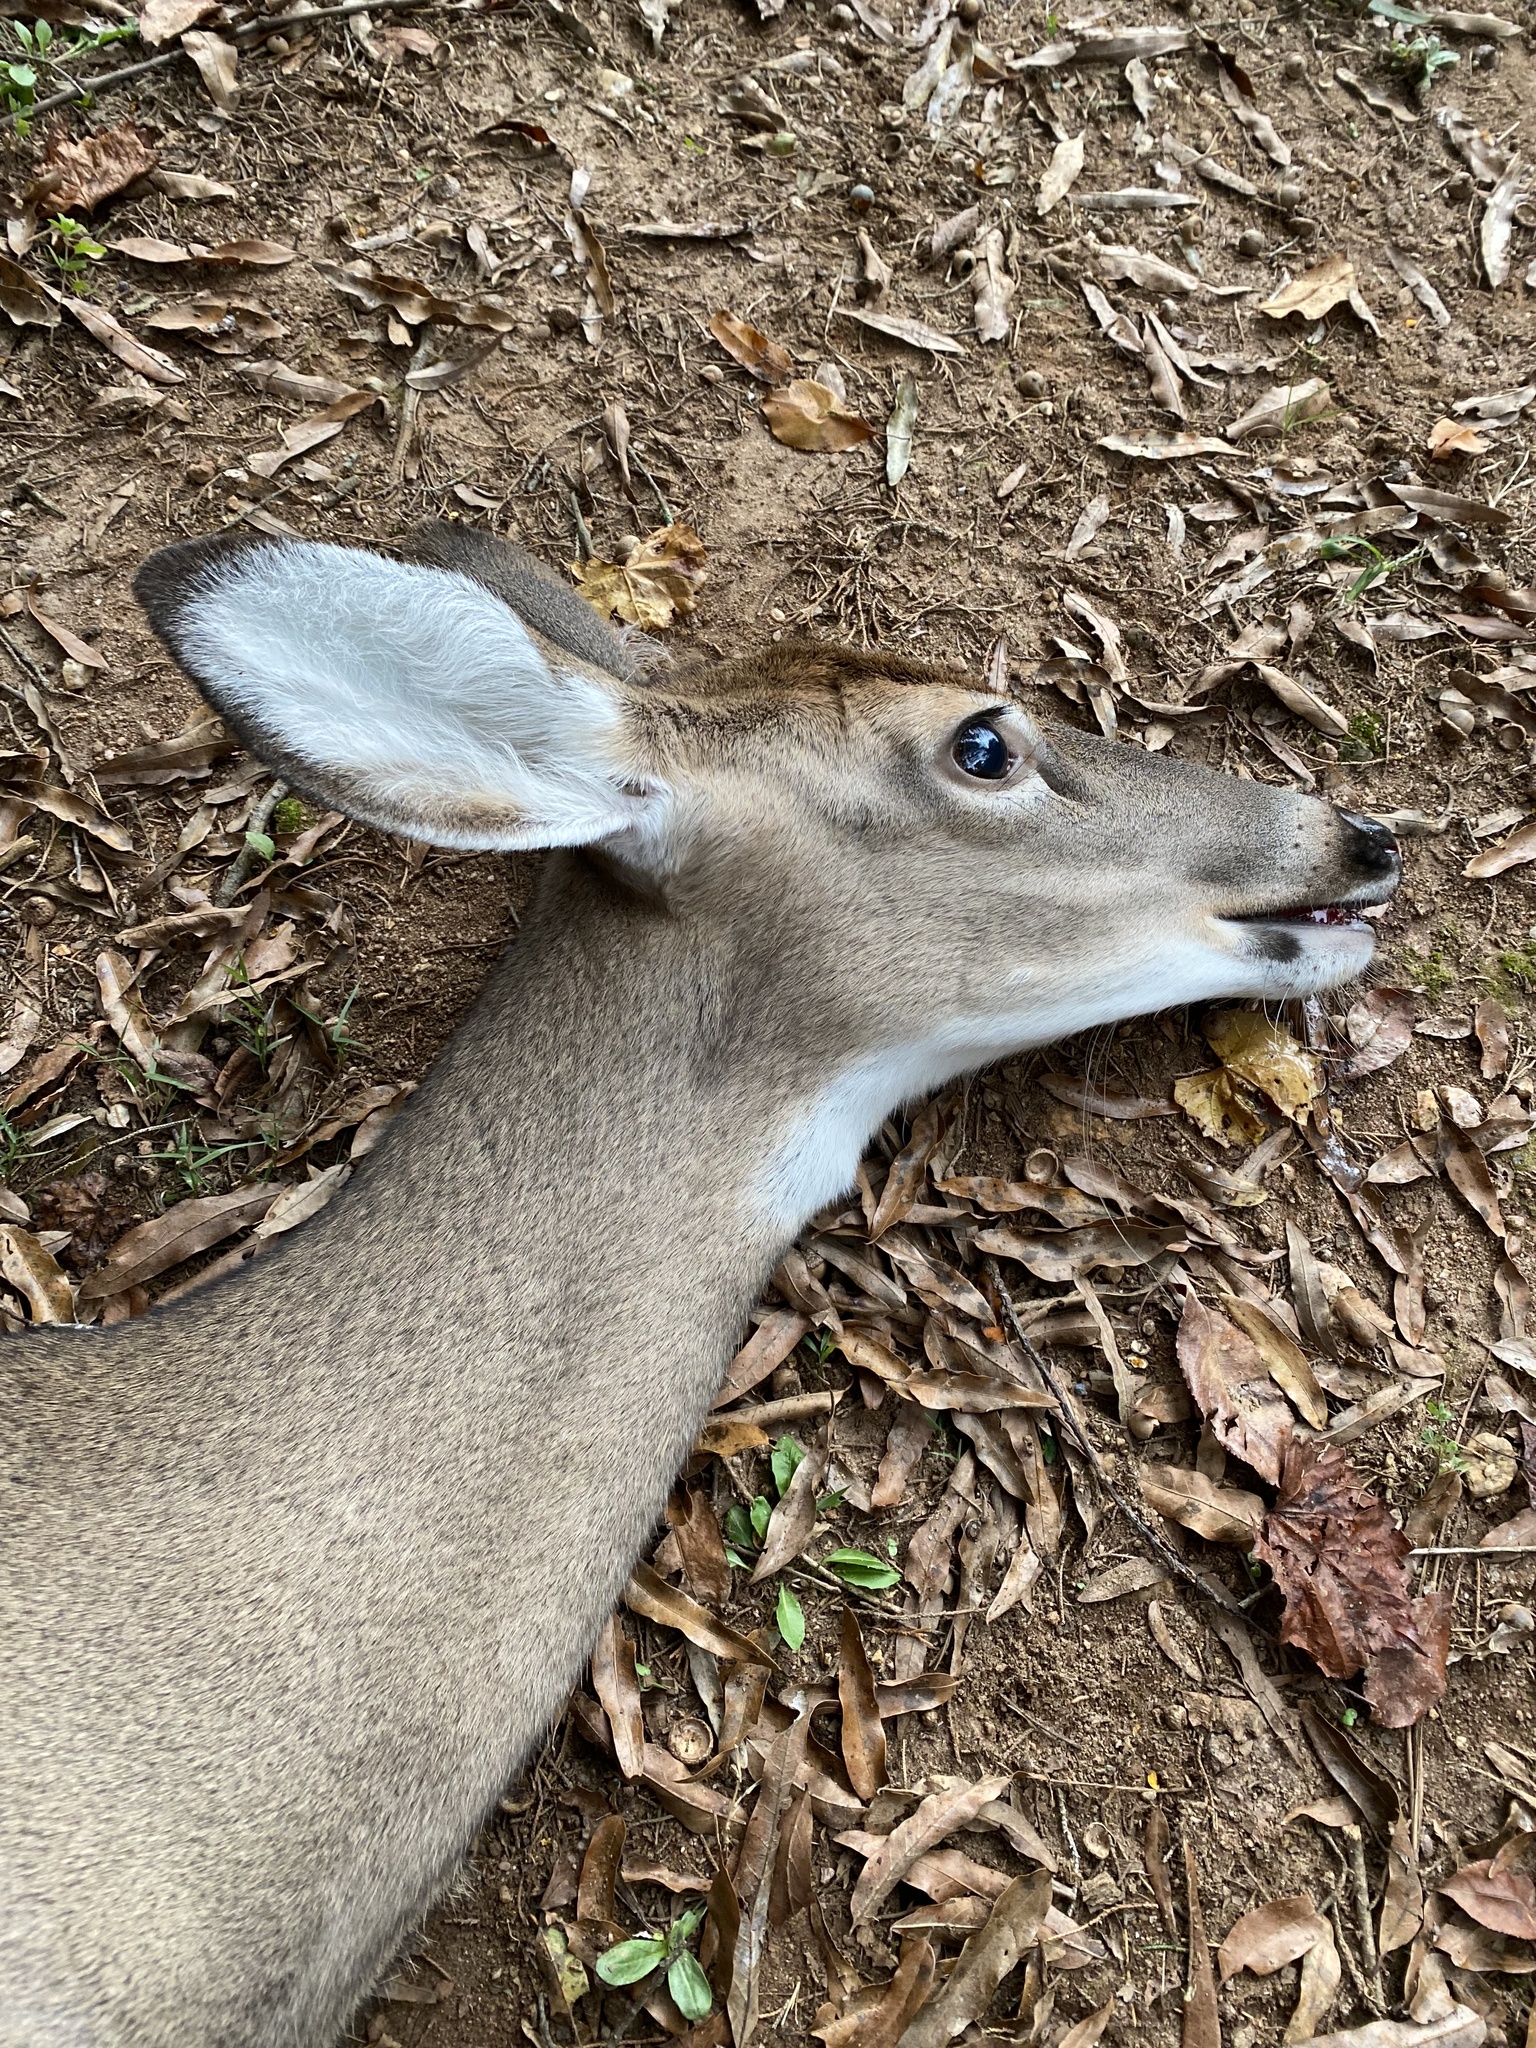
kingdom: Animalia
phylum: Chordata
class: Mammalia
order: Artiodactyla
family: Cervidae
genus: Odocoileus
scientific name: Odocoileus virginianus
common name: White-tailed deer
